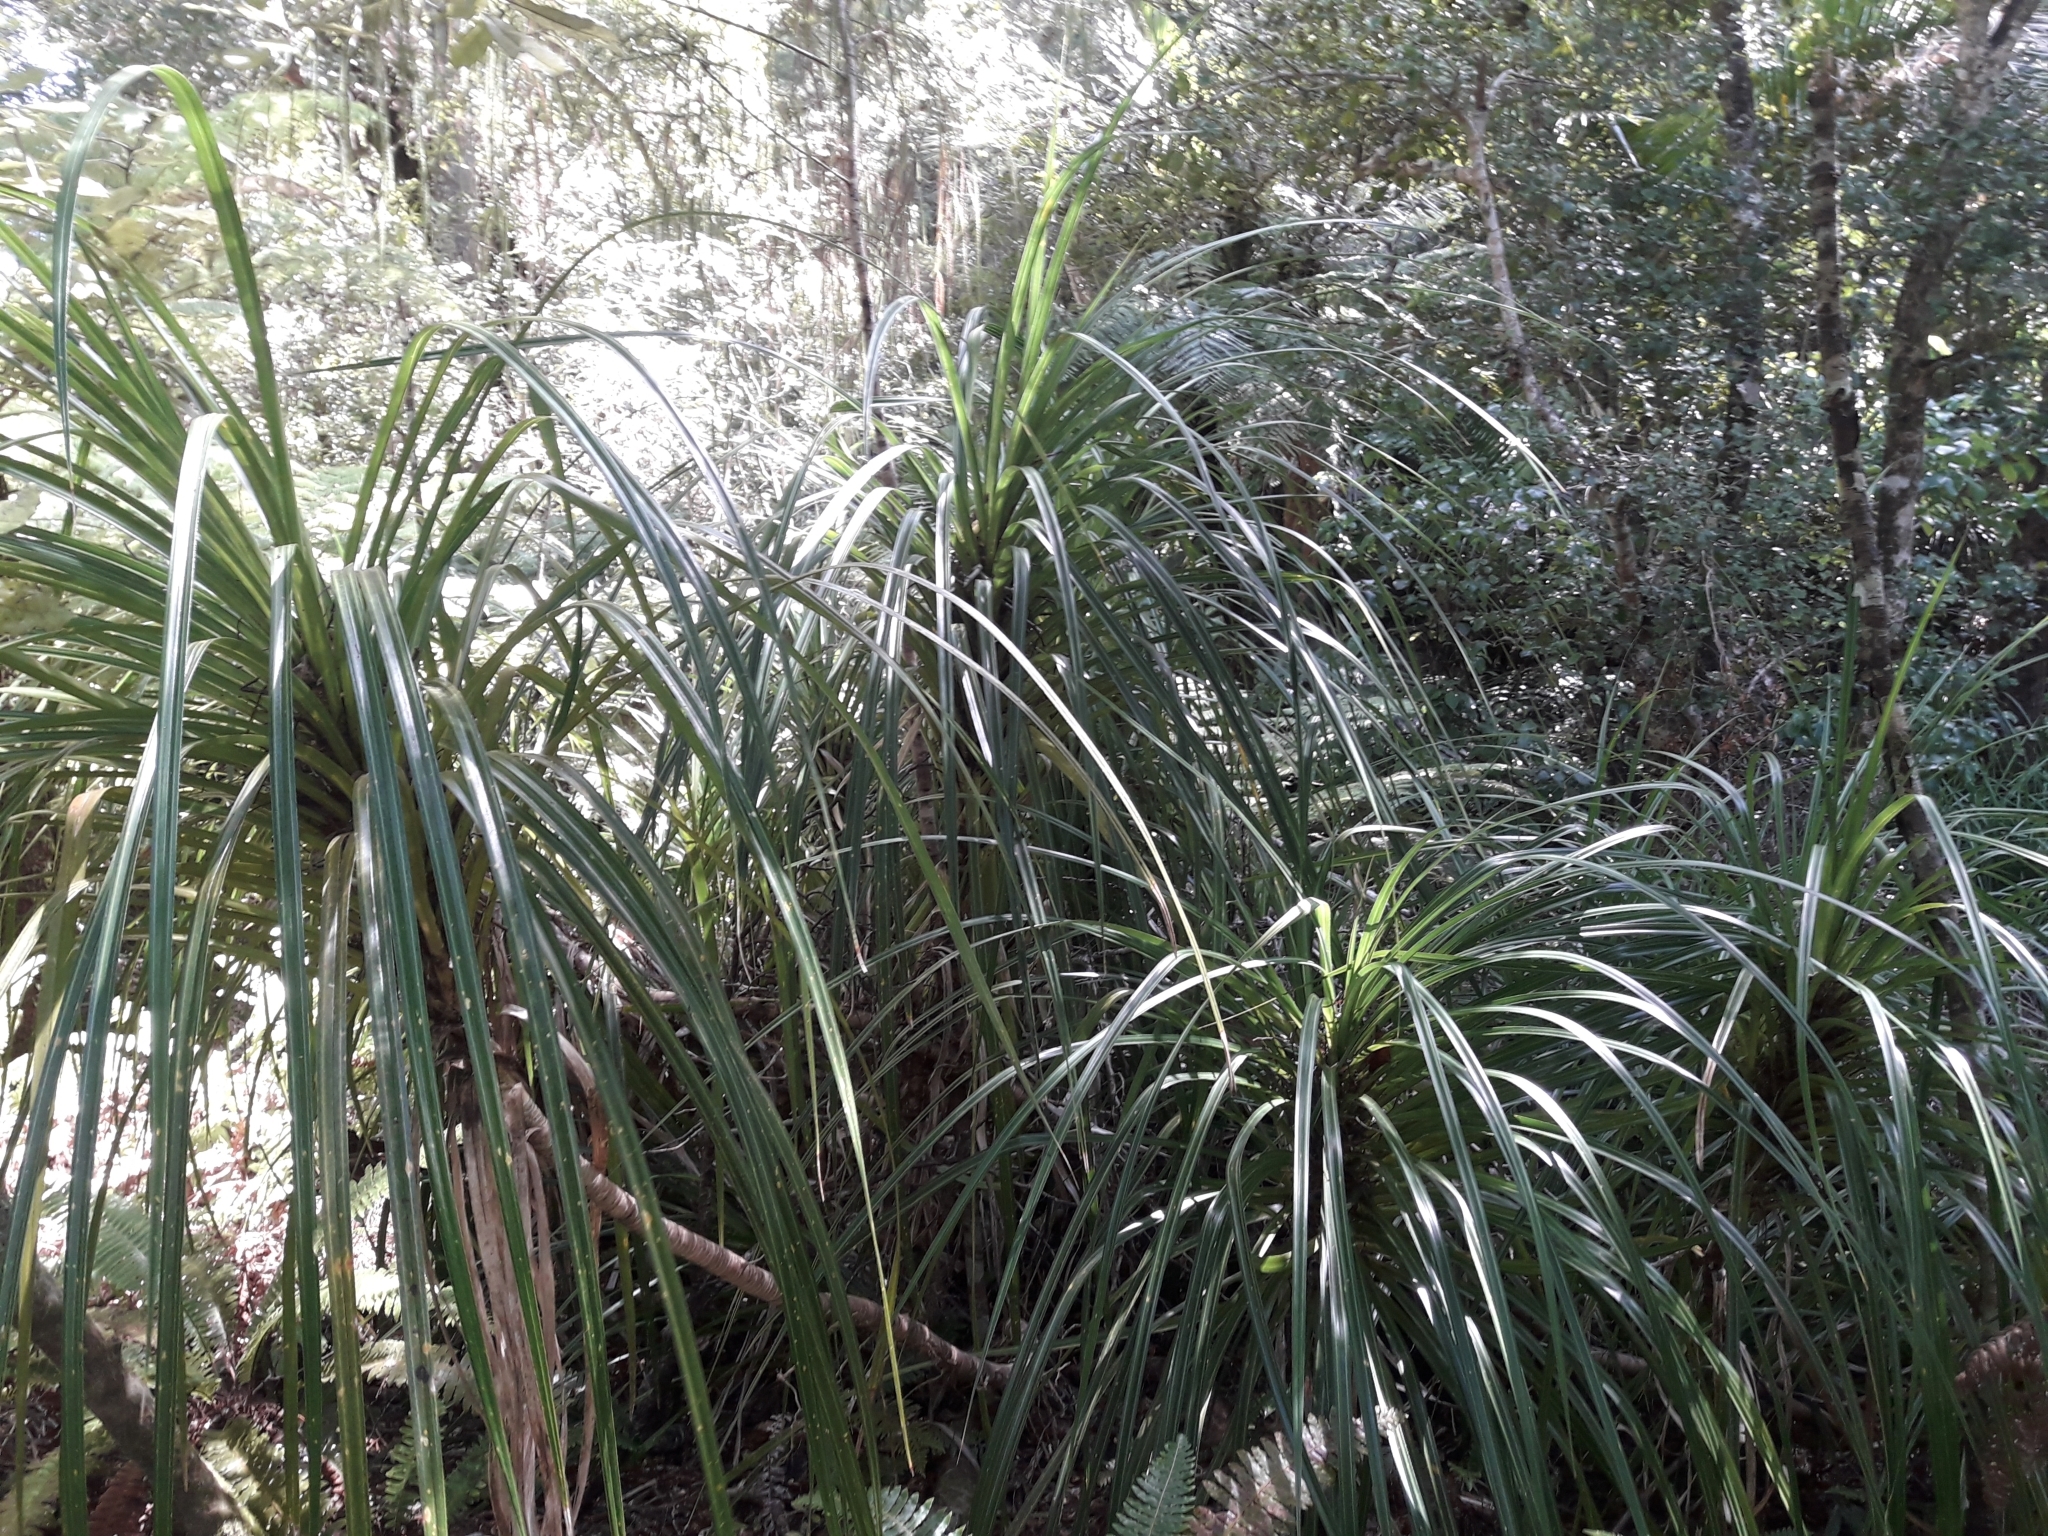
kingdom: Plantae
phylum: Tracheophyta
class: Liliopsida
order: Pandanales
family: Pandanaceae
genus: Freycinetia
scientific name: Freycinetia banksii
